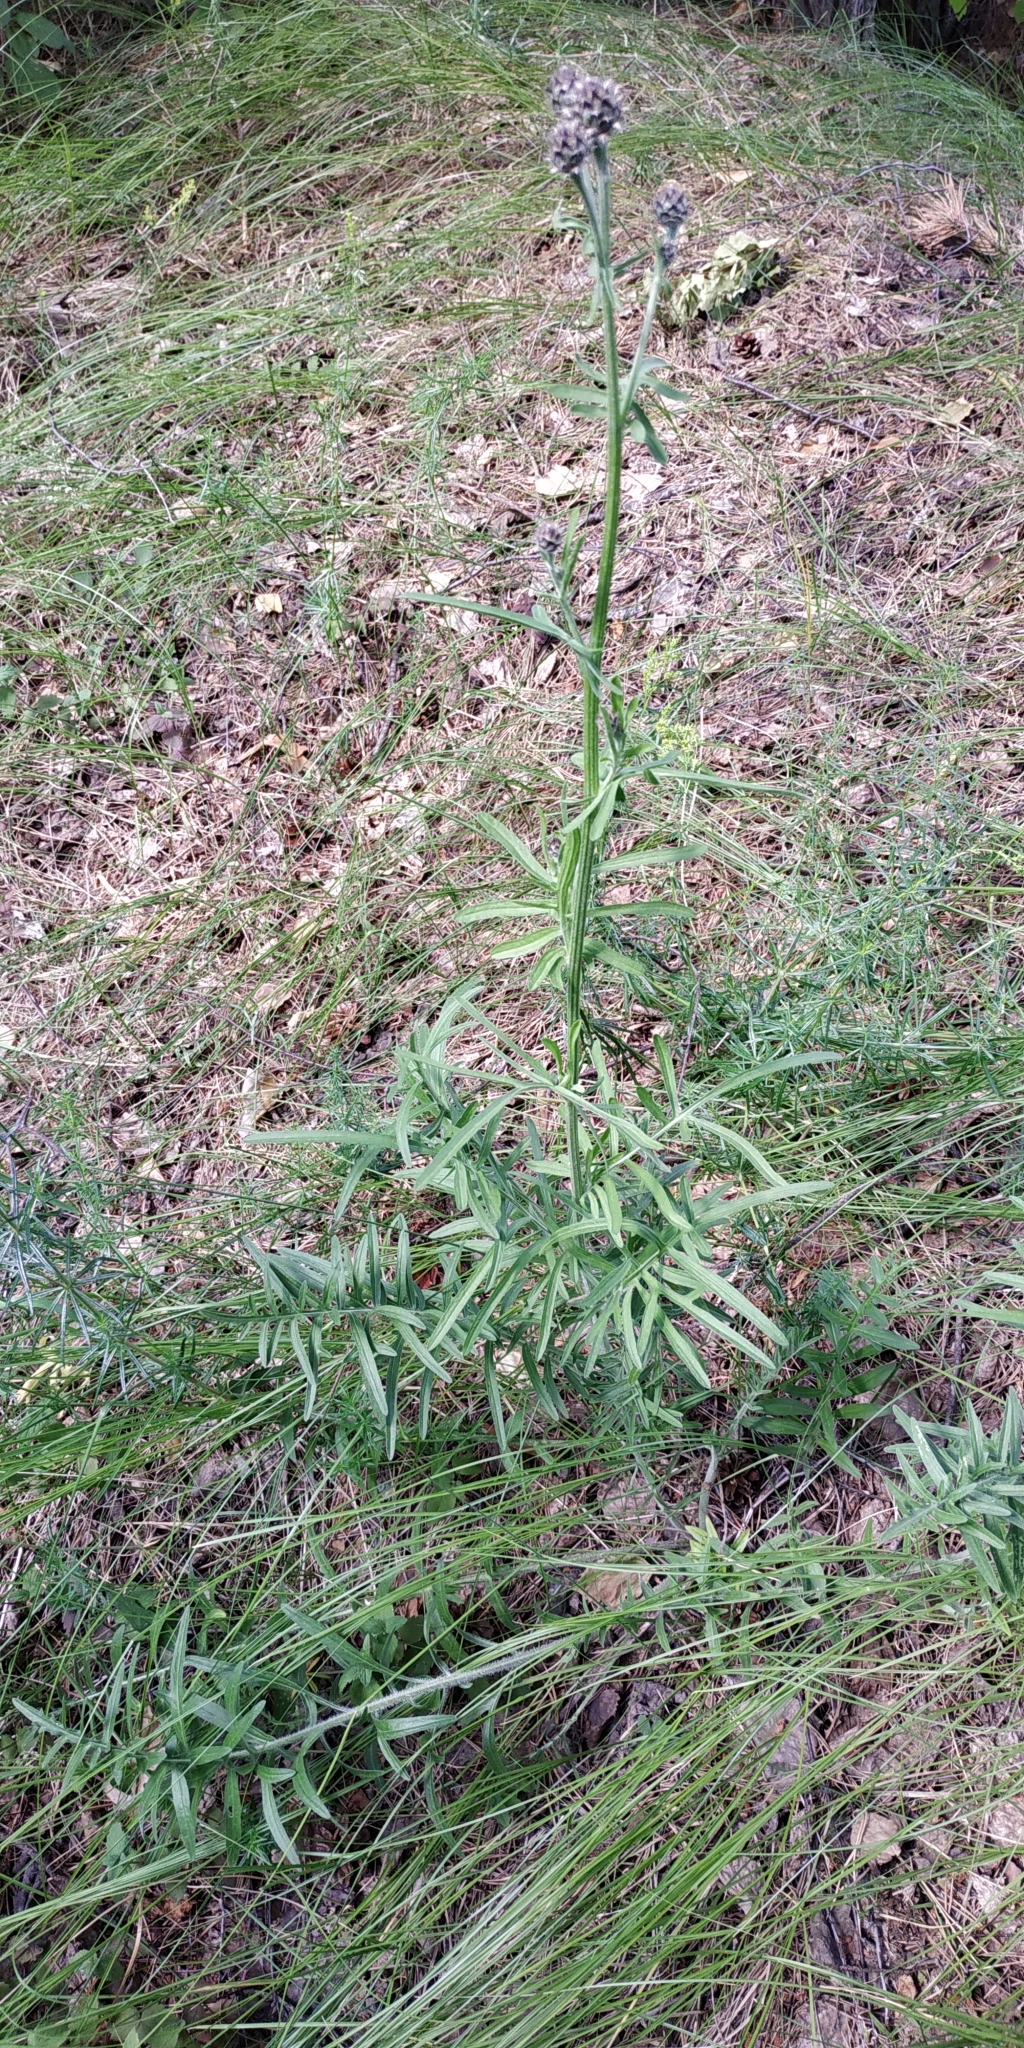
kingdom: Plantae
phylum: Tracheophyta
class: Magnoliopsida
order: Asterales
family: Asteraceae
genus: Centaurea
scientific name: Centaurea scabiosa
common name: Greater knapweed
